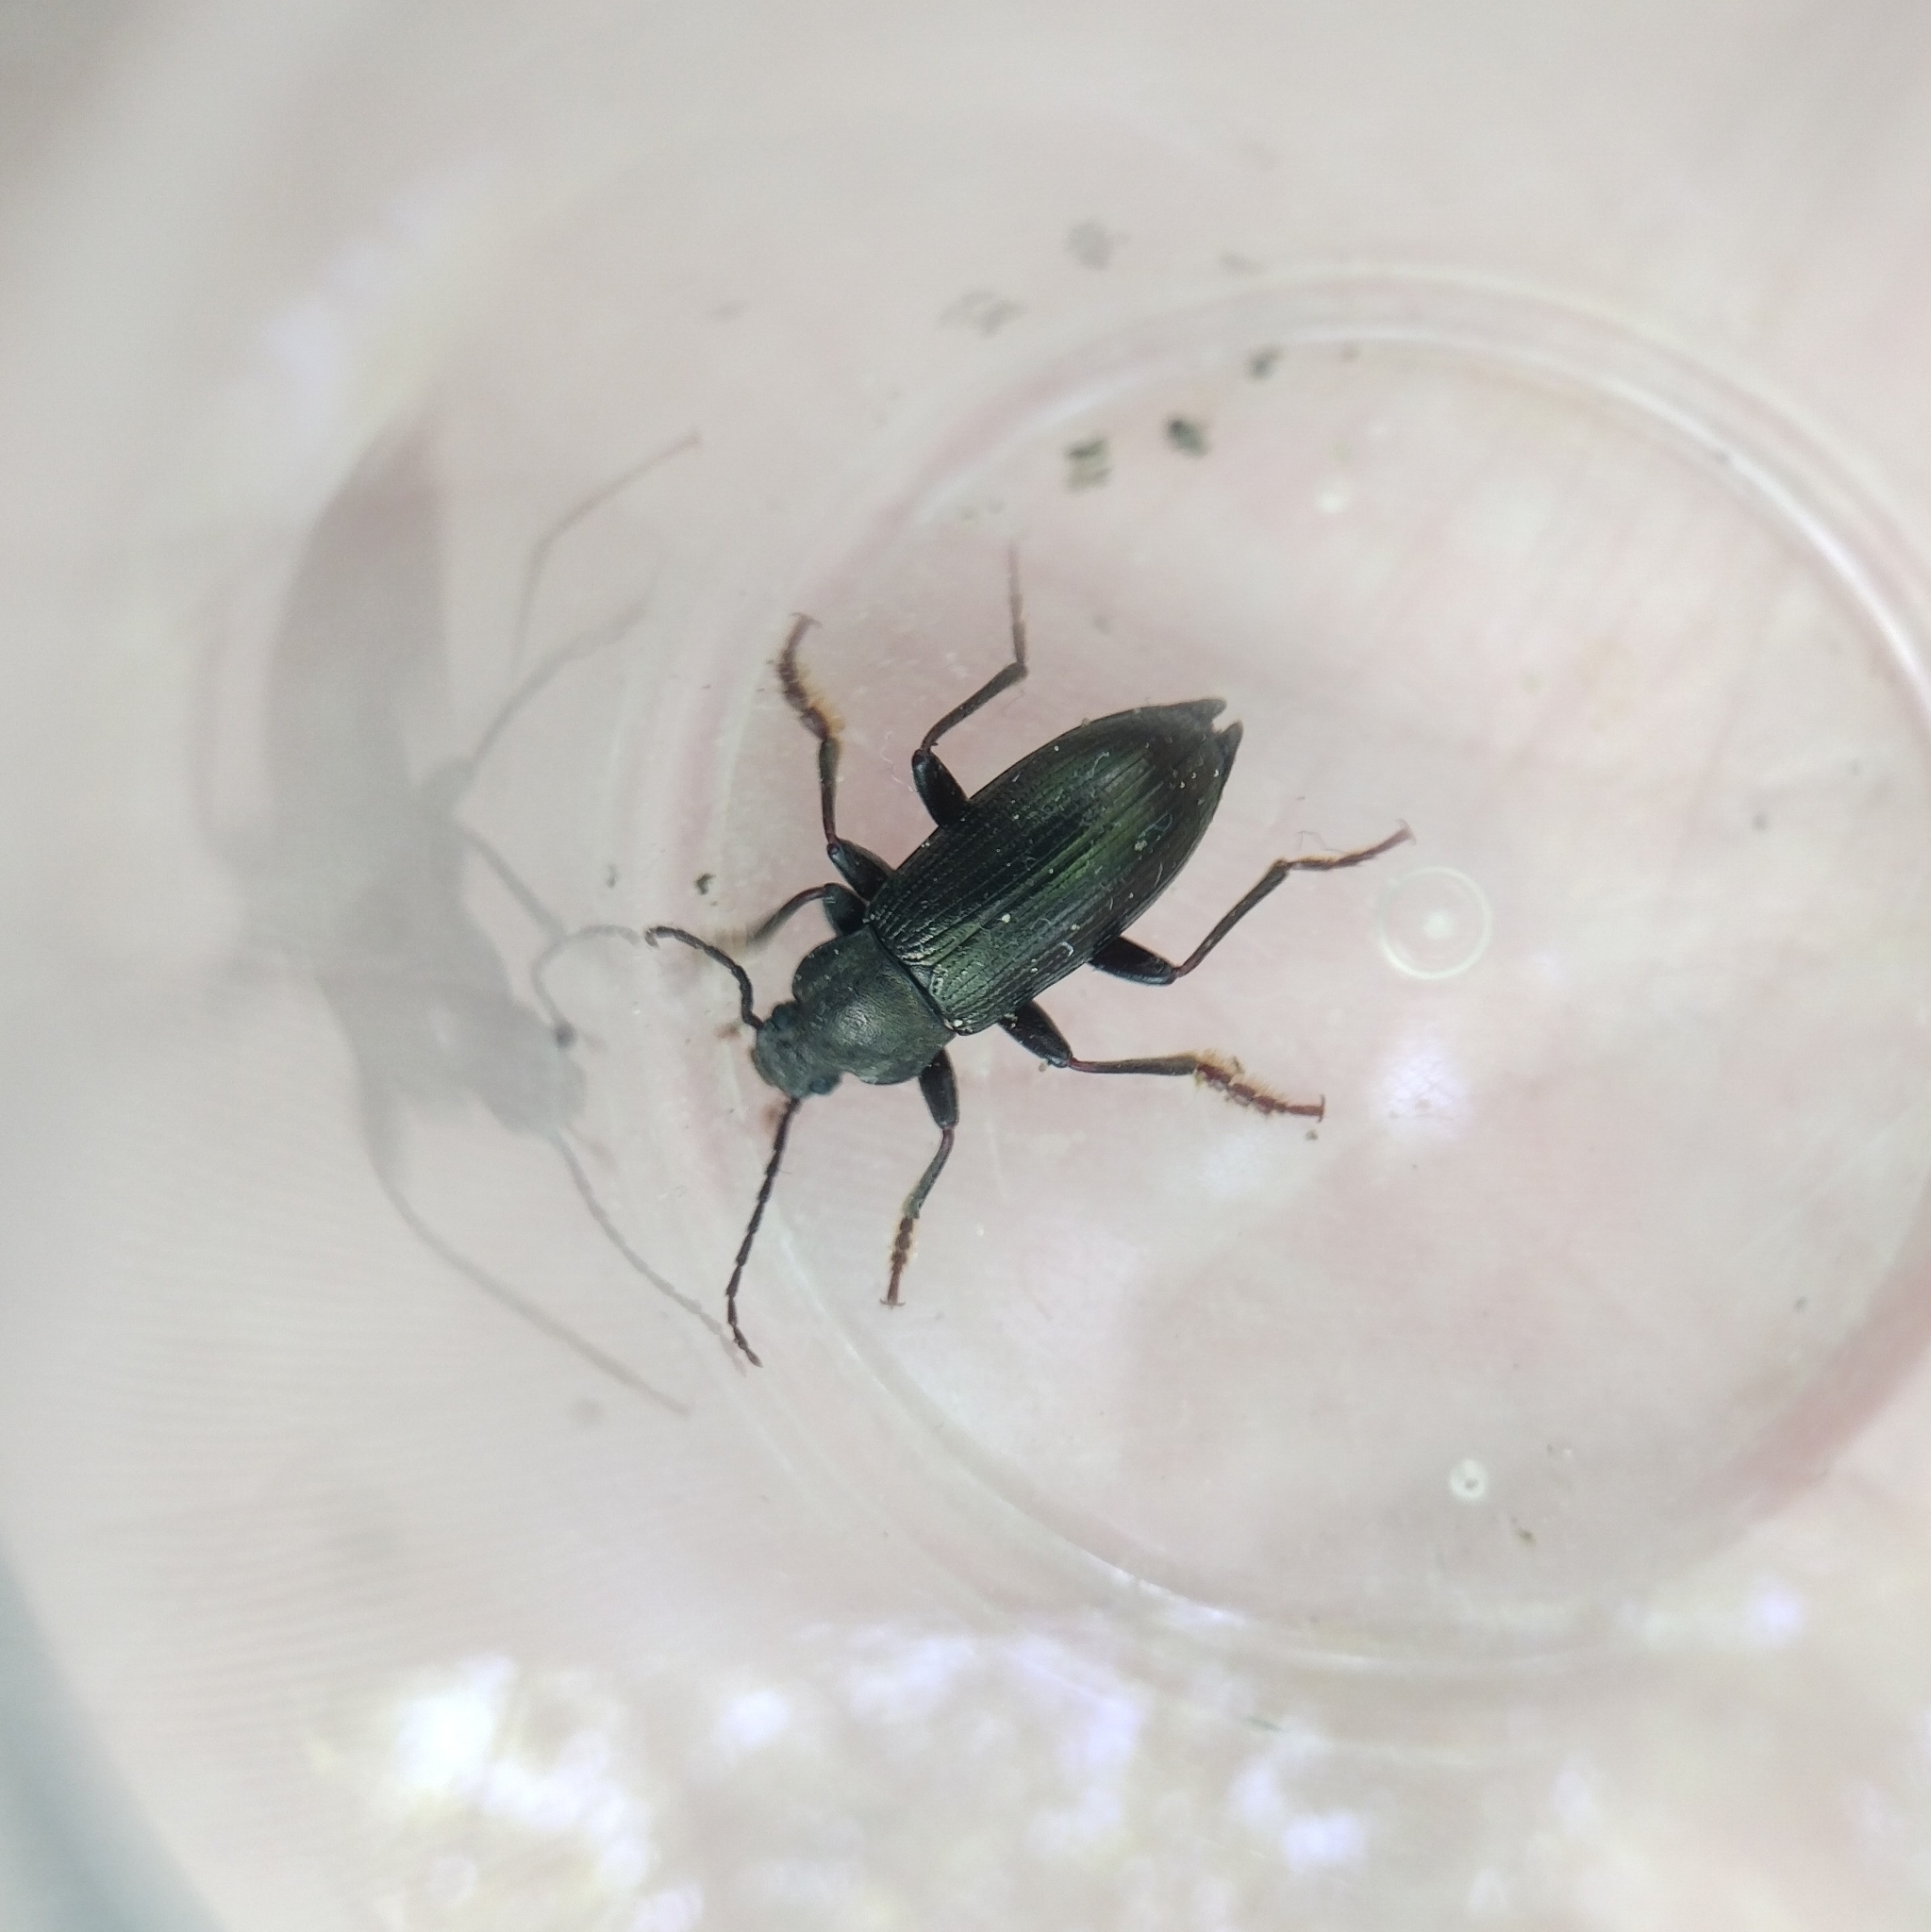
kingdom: Animalia
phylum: Arthropoda
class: Insecta
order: Coleoptera
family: Tenebrionidae
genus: Stenomax
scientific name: Stenomax aeneus
